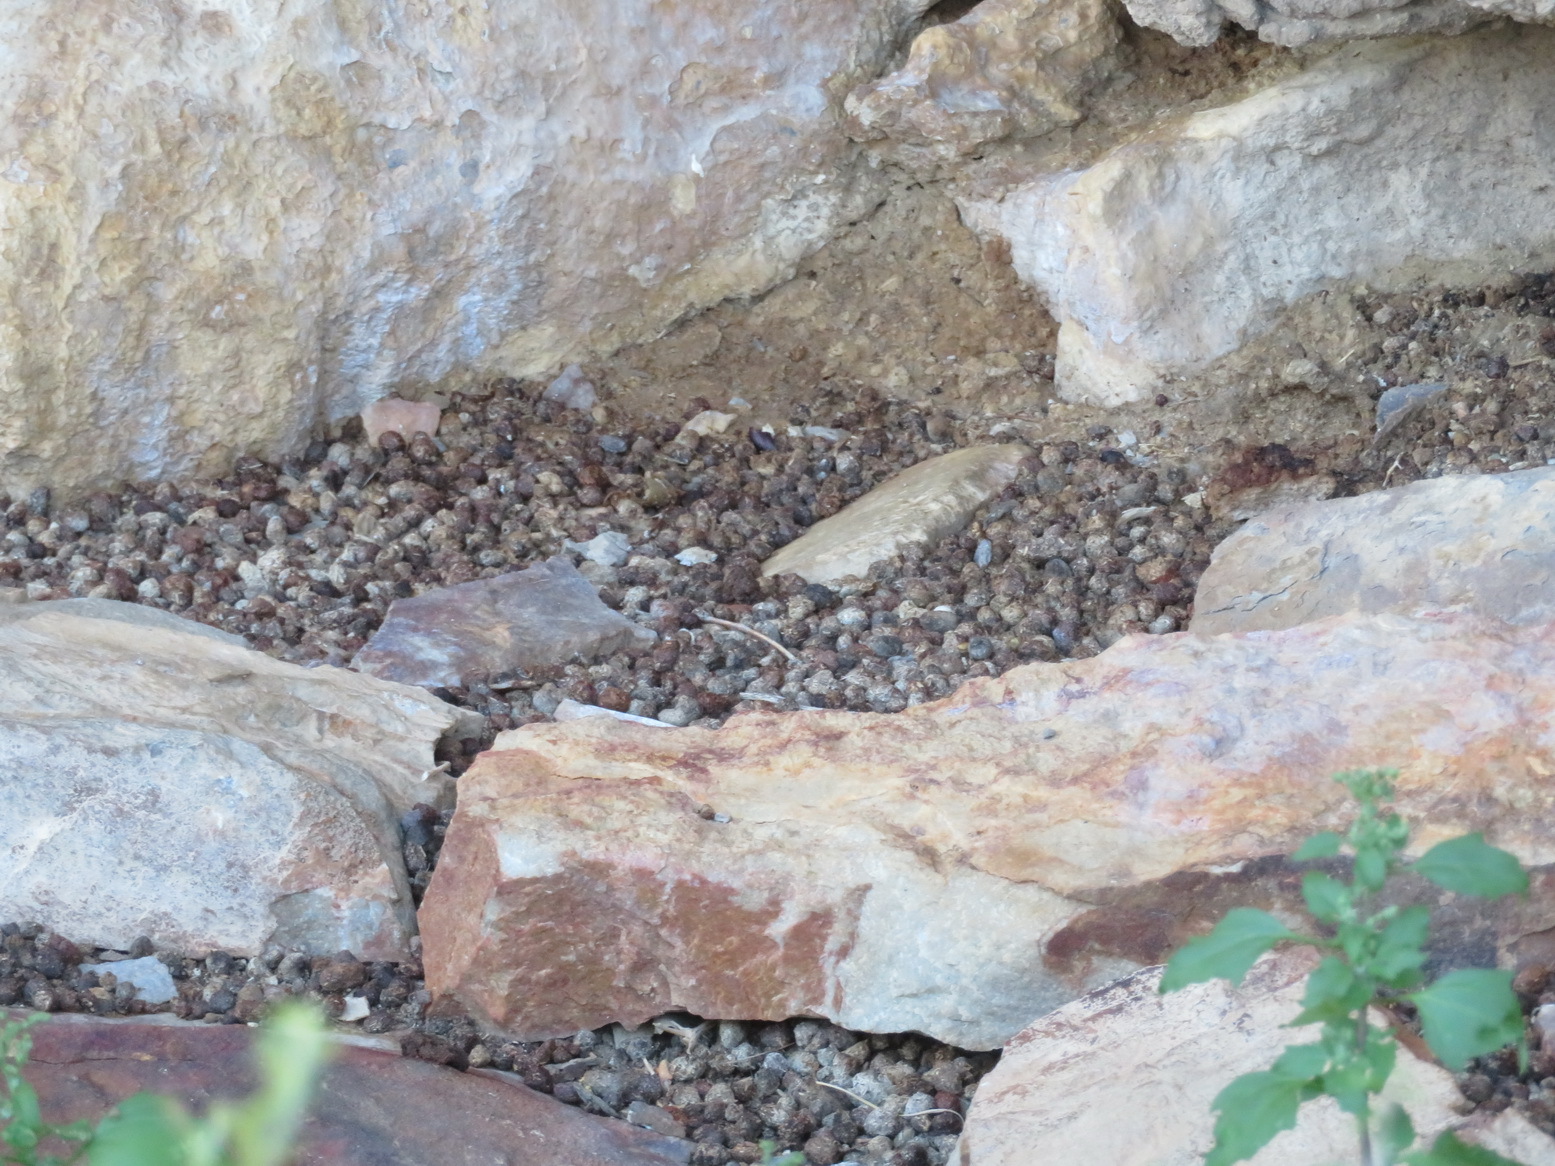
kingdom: Animalia
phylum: Chordata
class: Mammalia
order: Hyracoidea
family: Procaviidae
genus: Procavia
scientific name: Procavia capensis
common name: Rock hyrax
